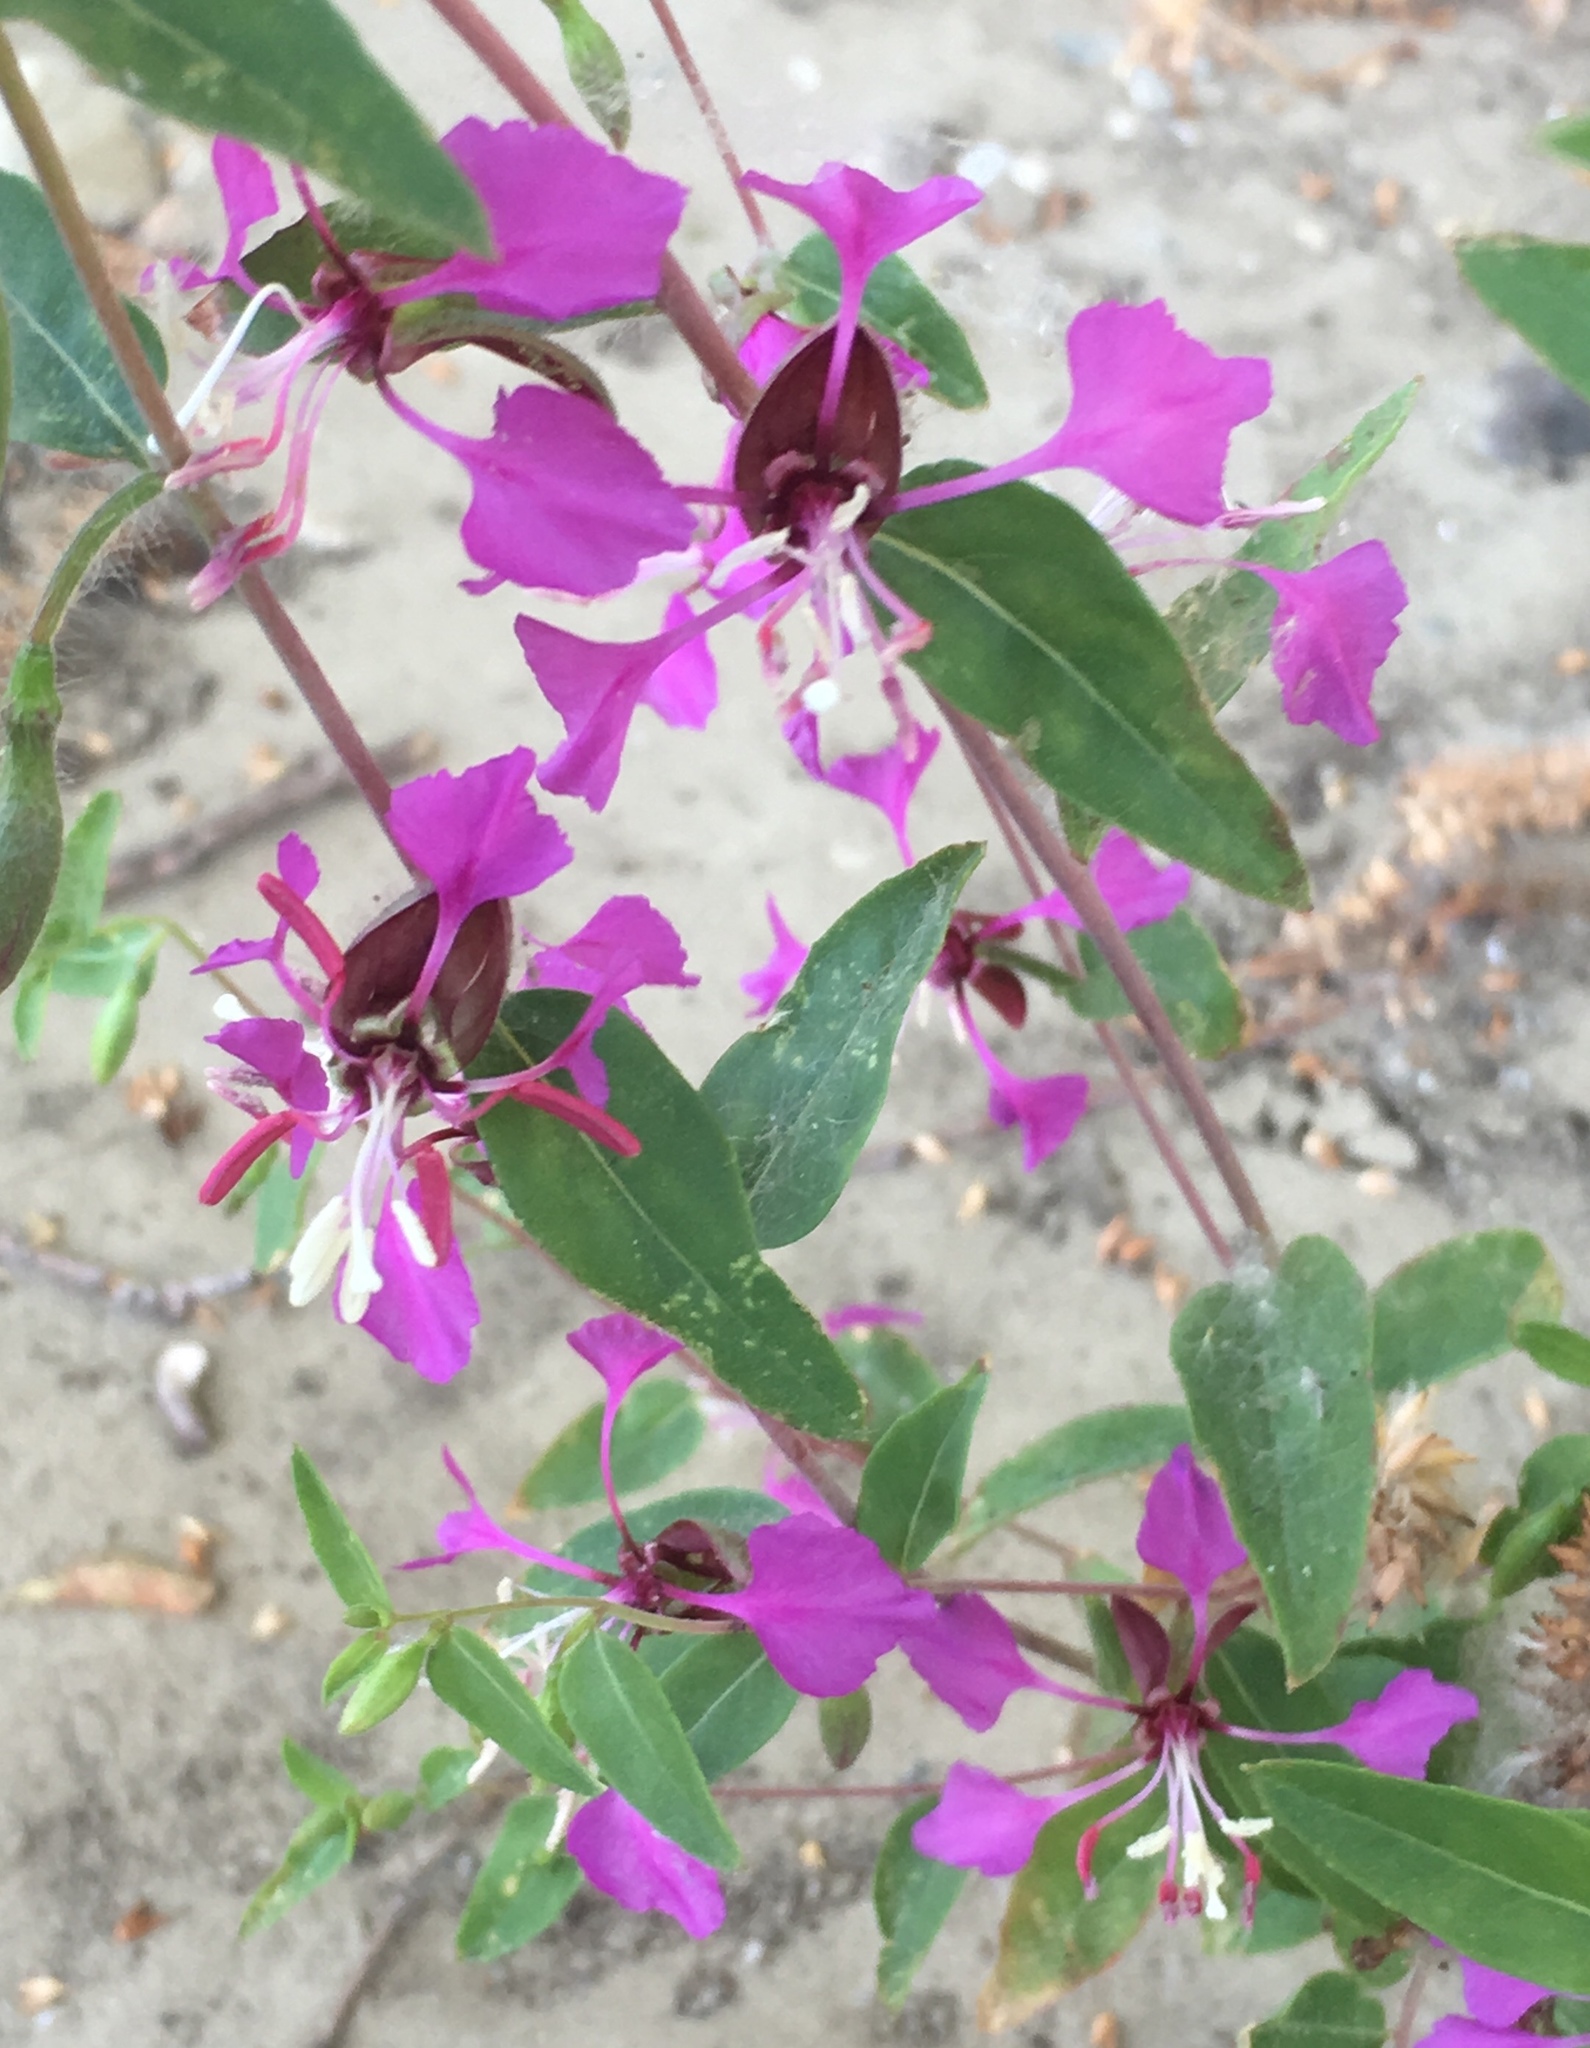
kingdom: Plantae
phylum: Tracheophyta
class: Magnoliopsida
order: Myrtales
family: Onagraceae
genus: Clarkia
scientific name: Clarkia unguiculata
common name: Clarkia
